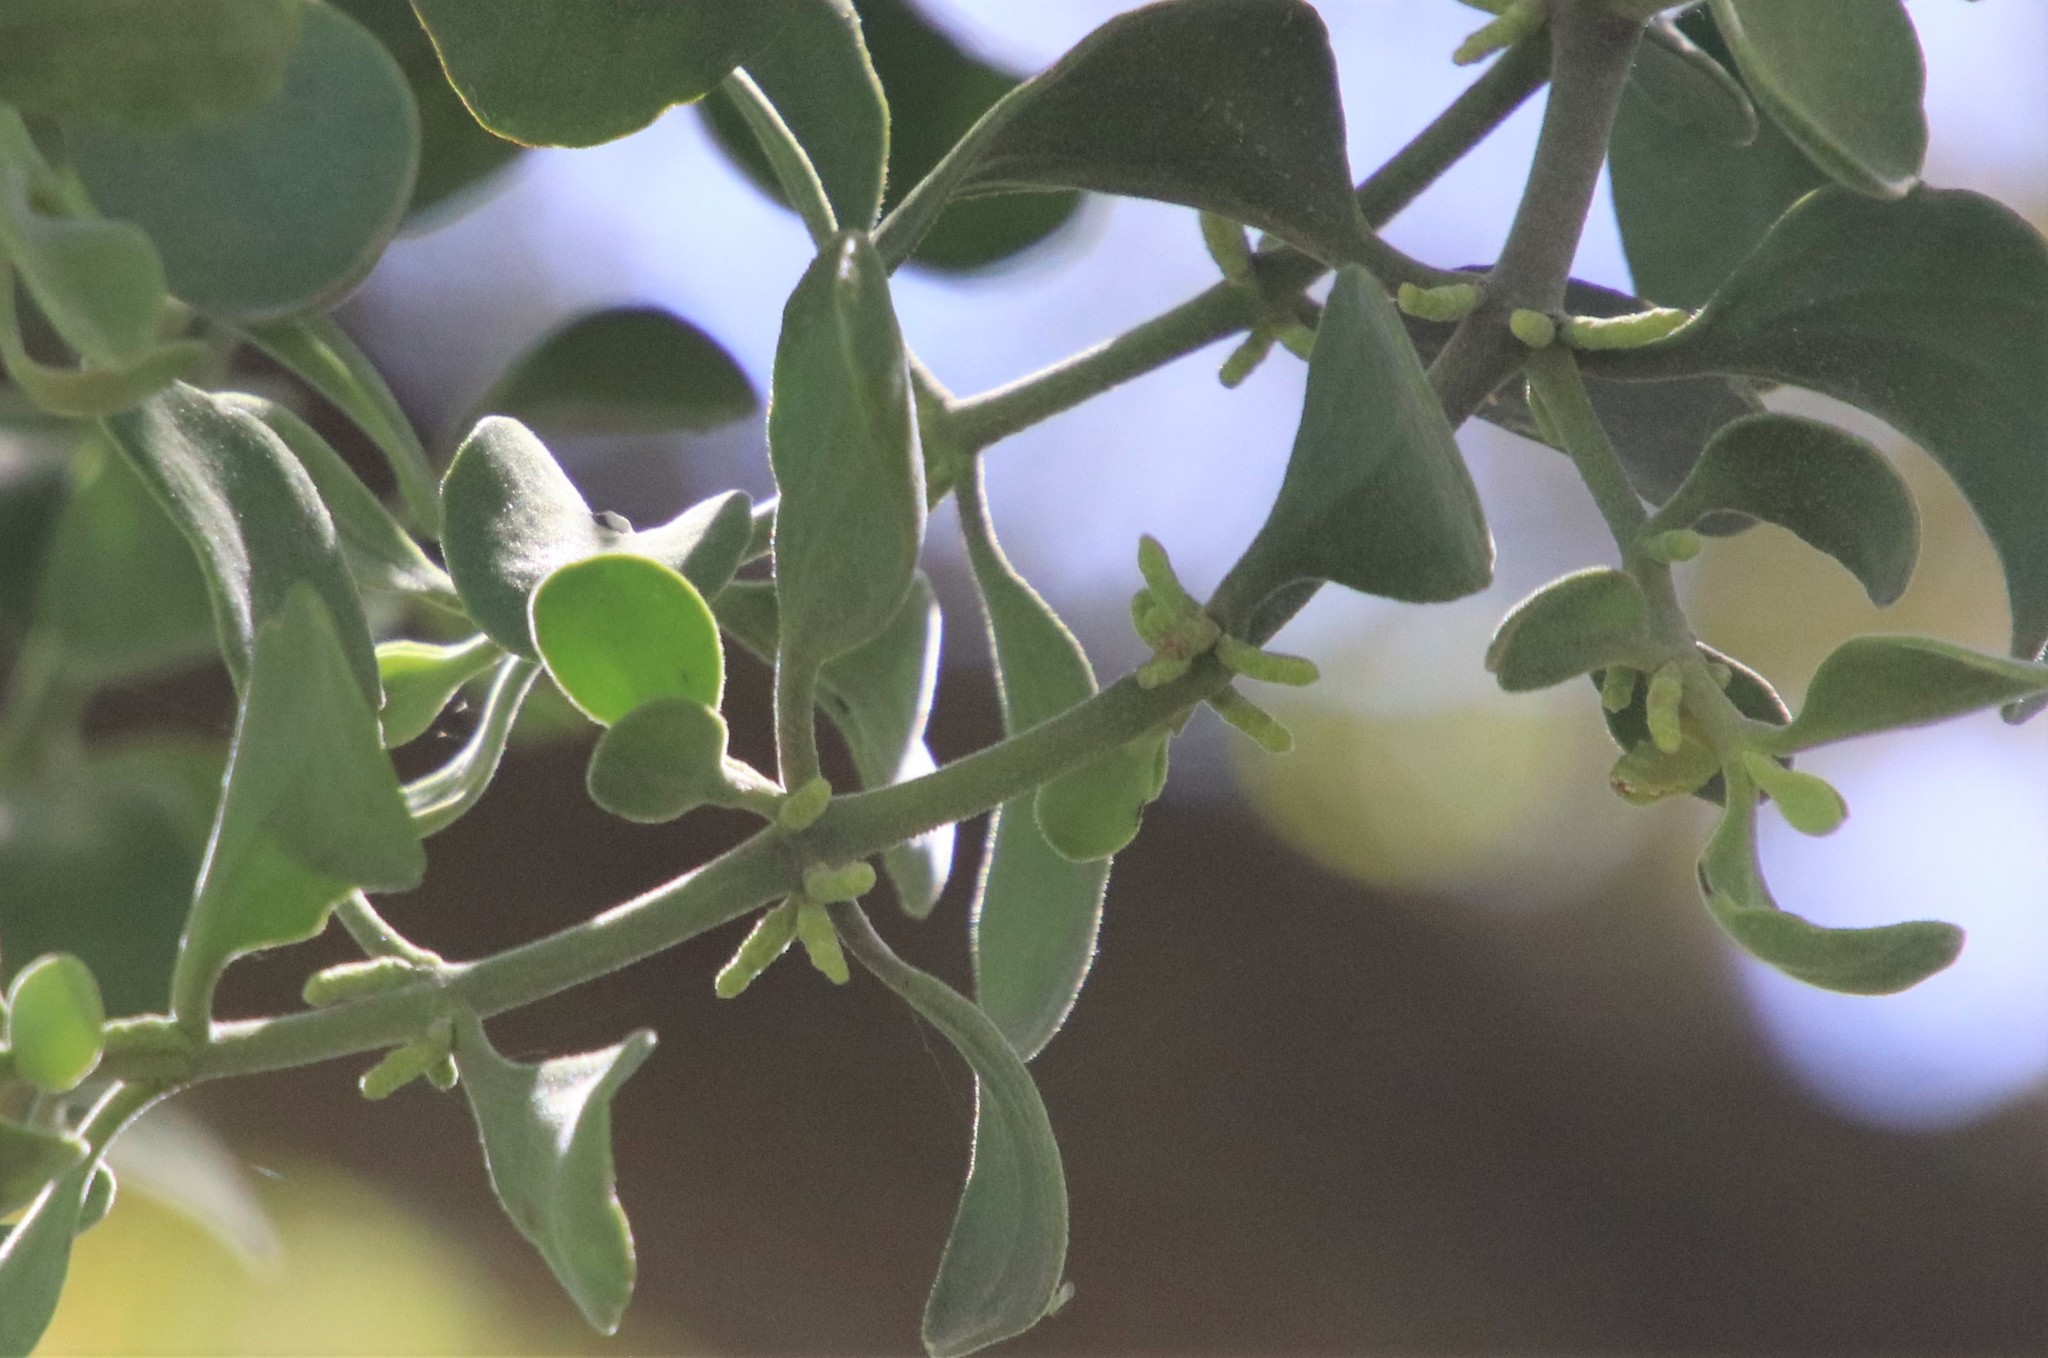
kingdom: Plantae
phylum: Tracheophyta
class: Magnoliopsida
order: Santalales
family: Viscaceae
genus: Phoradendron
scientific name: Phoradendron leucarpum
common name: Pacific mistletoe
